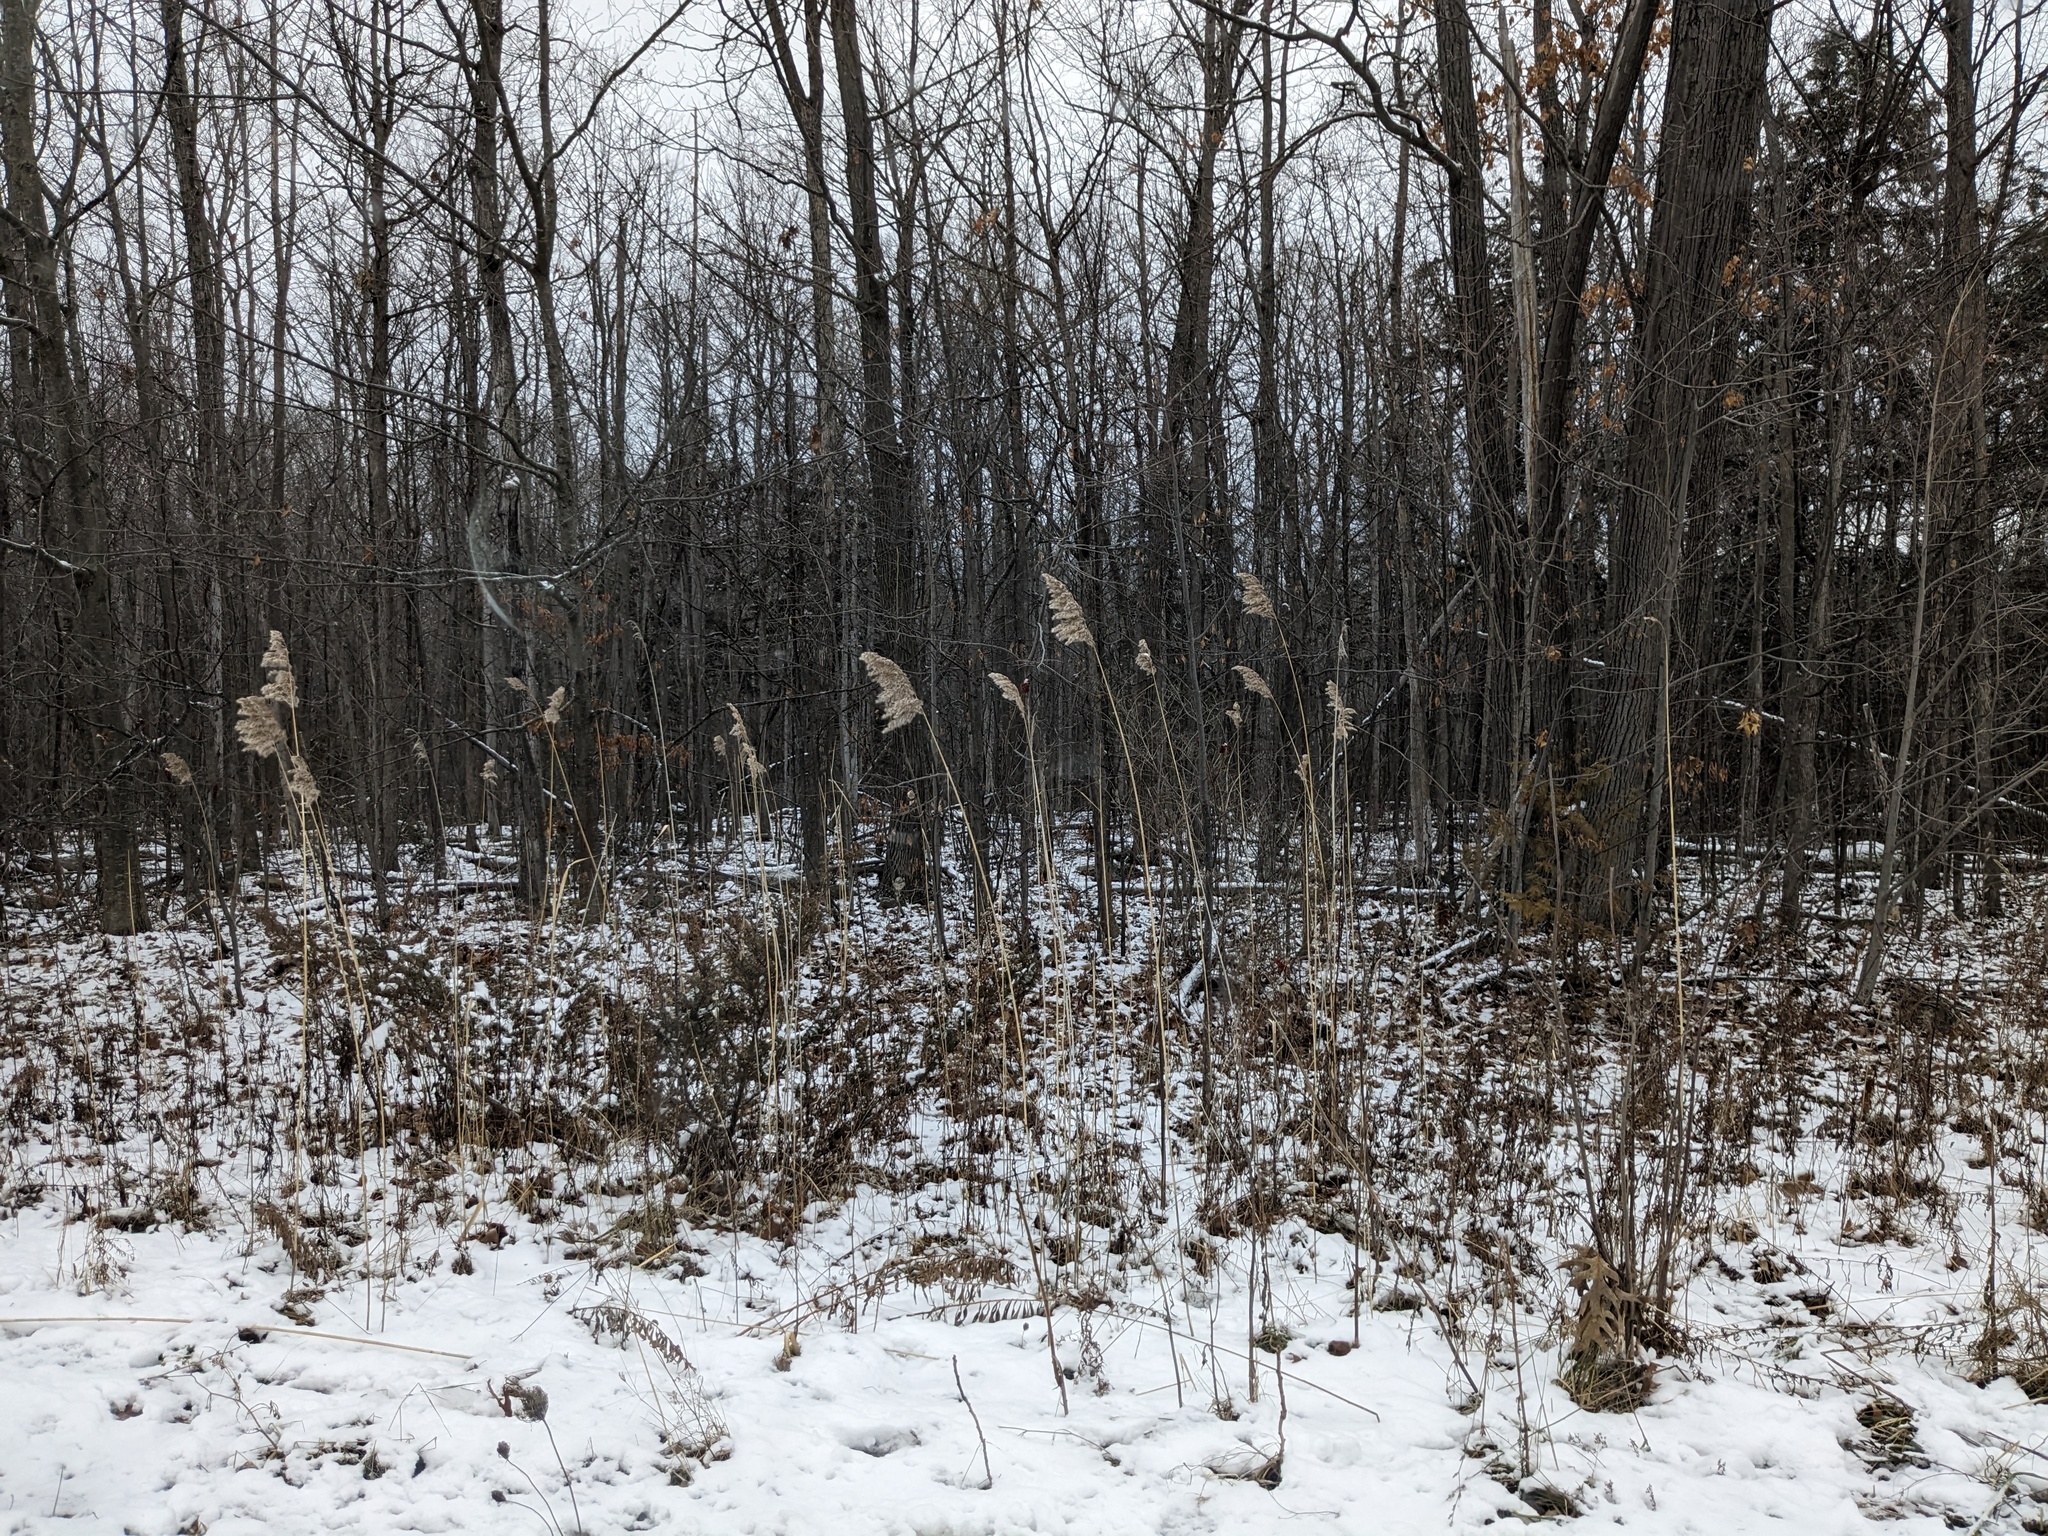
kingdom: Plantae
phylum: Tracheophyta
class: Liliopsida
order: Poales
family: Poaceae
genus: Phragmites
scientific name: Phragmites australis
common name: Common reed
